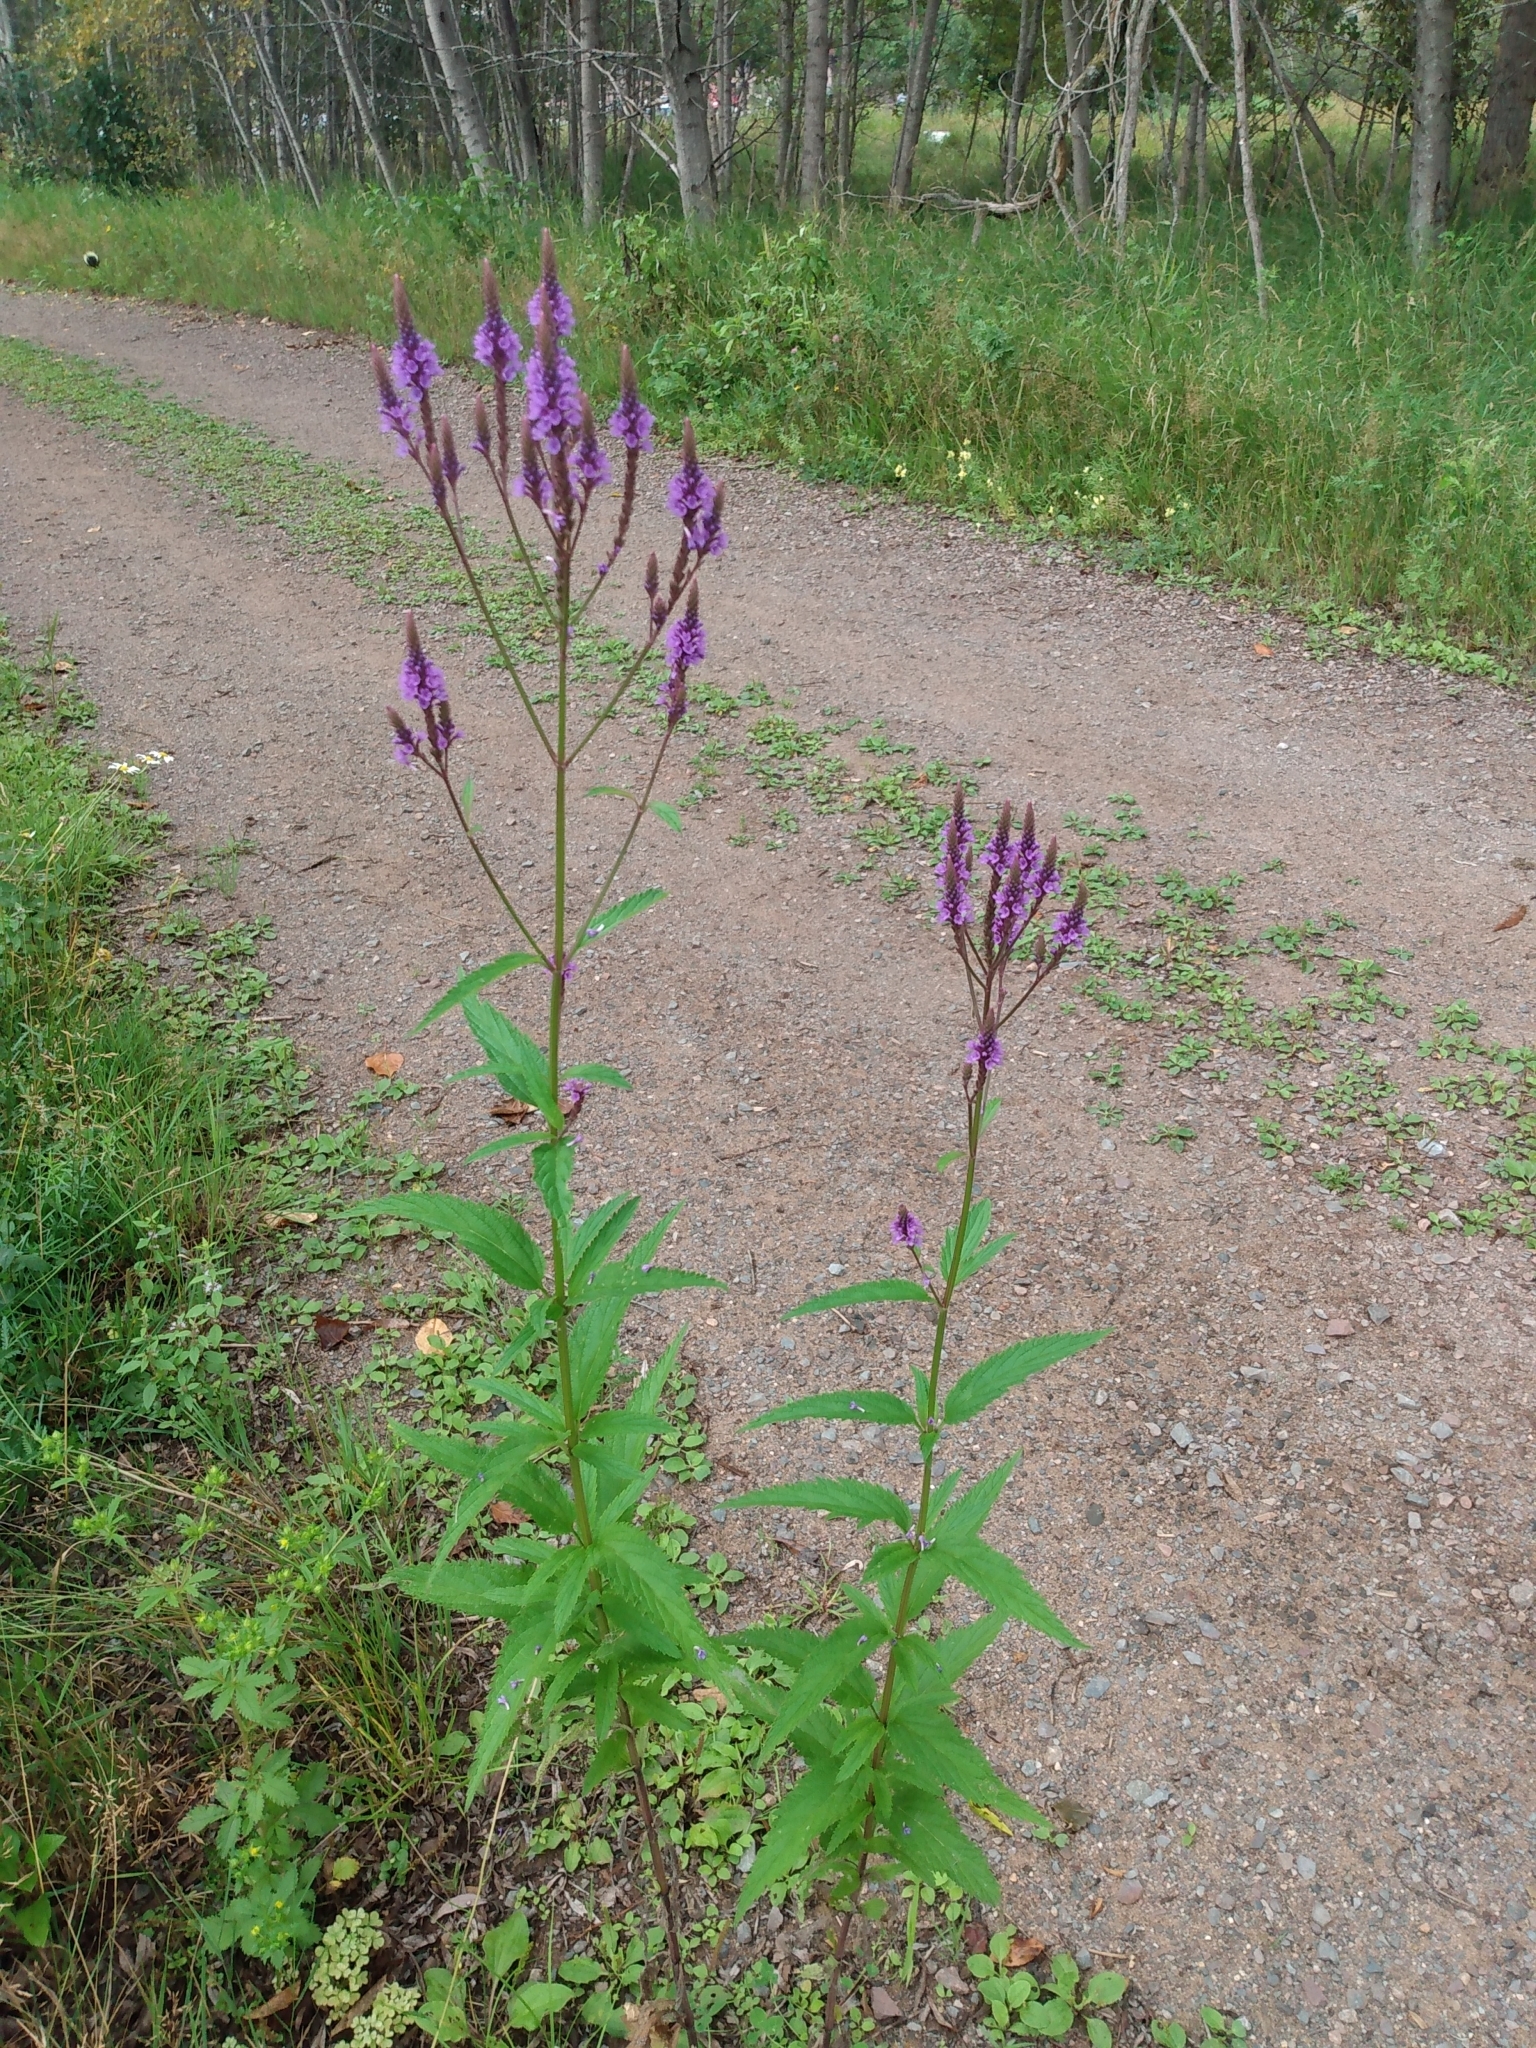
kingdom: Plantae
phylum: Tracheophyta
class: Magnoliopsida
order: Lamiales
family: Verbenaceae
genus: Verbena
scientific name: Verbena hastata
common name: American blue vervain
